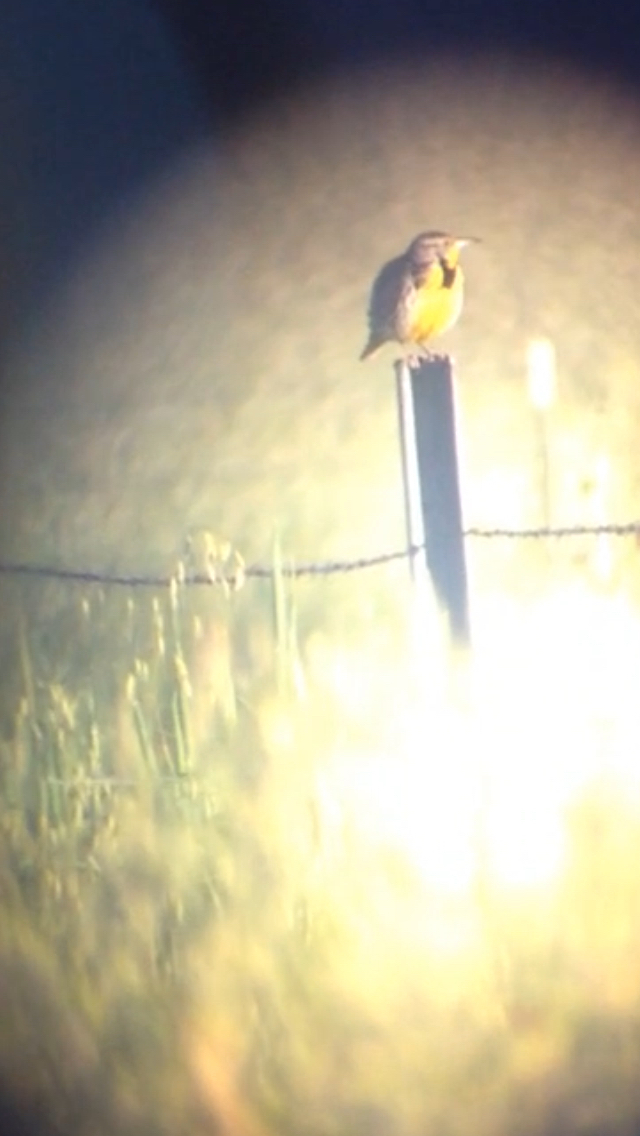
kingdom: Animalia
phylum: Chordata
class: Aves
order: Passeriformes
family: Icteridae
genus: Sturnella
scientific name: Sturnella neglecta
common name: Western meadowlark
